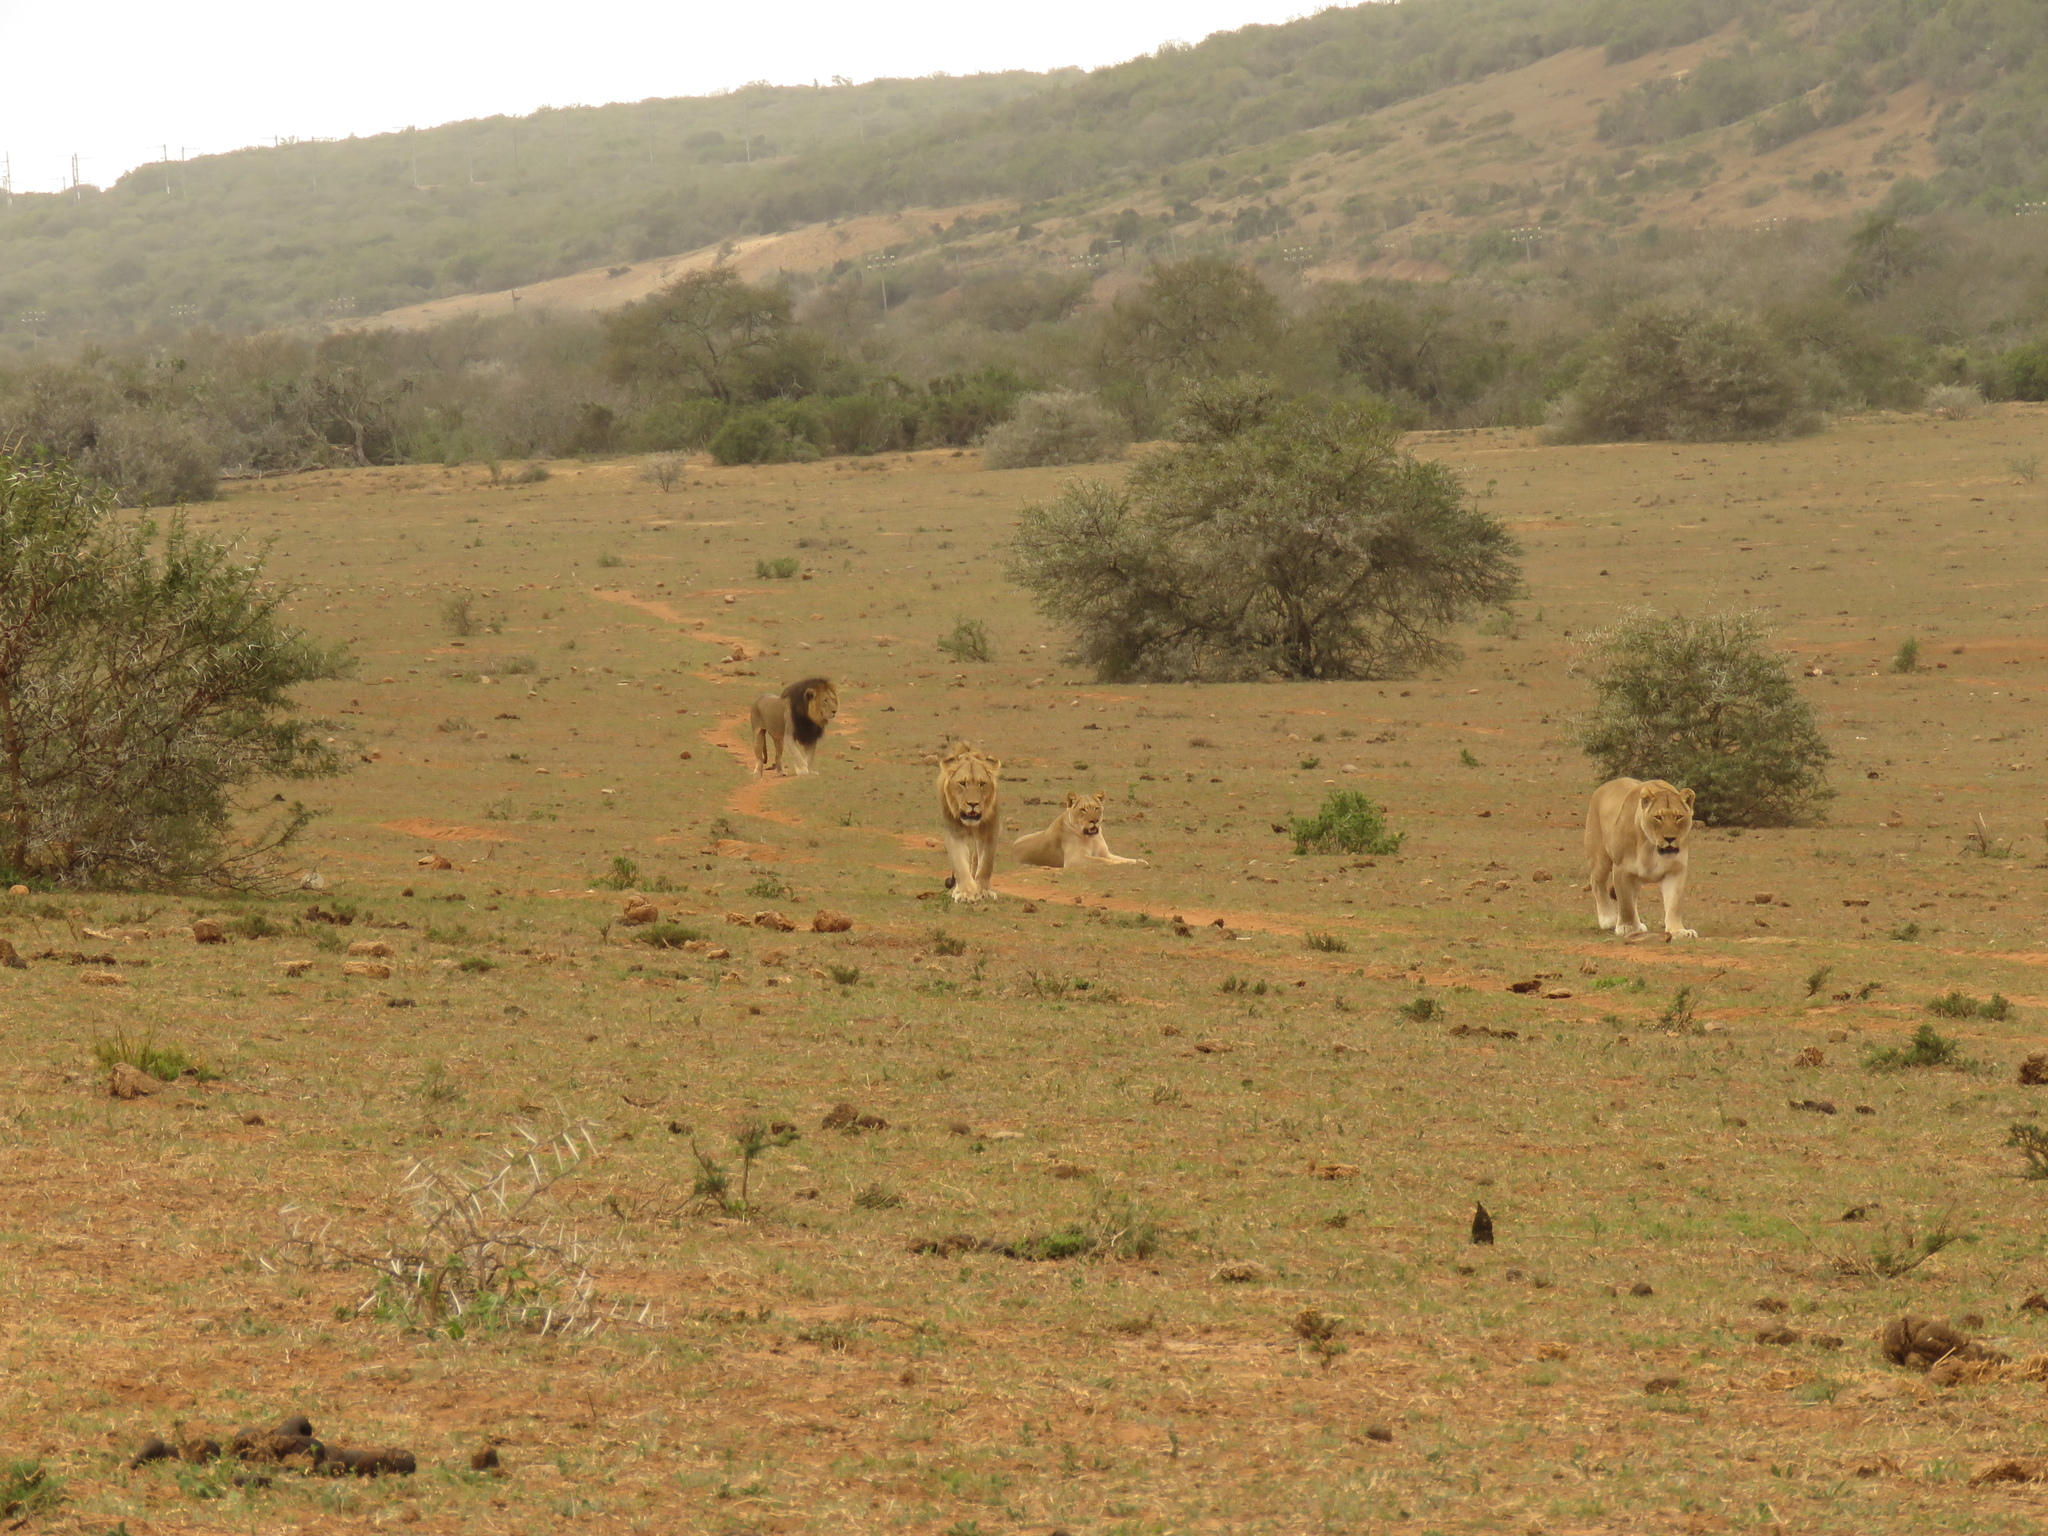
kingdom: Animalia
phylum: Chordata
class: Mammalia
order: Carnivora
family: Felidae
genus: Panthera
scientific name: Panthera leo
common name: Lion
